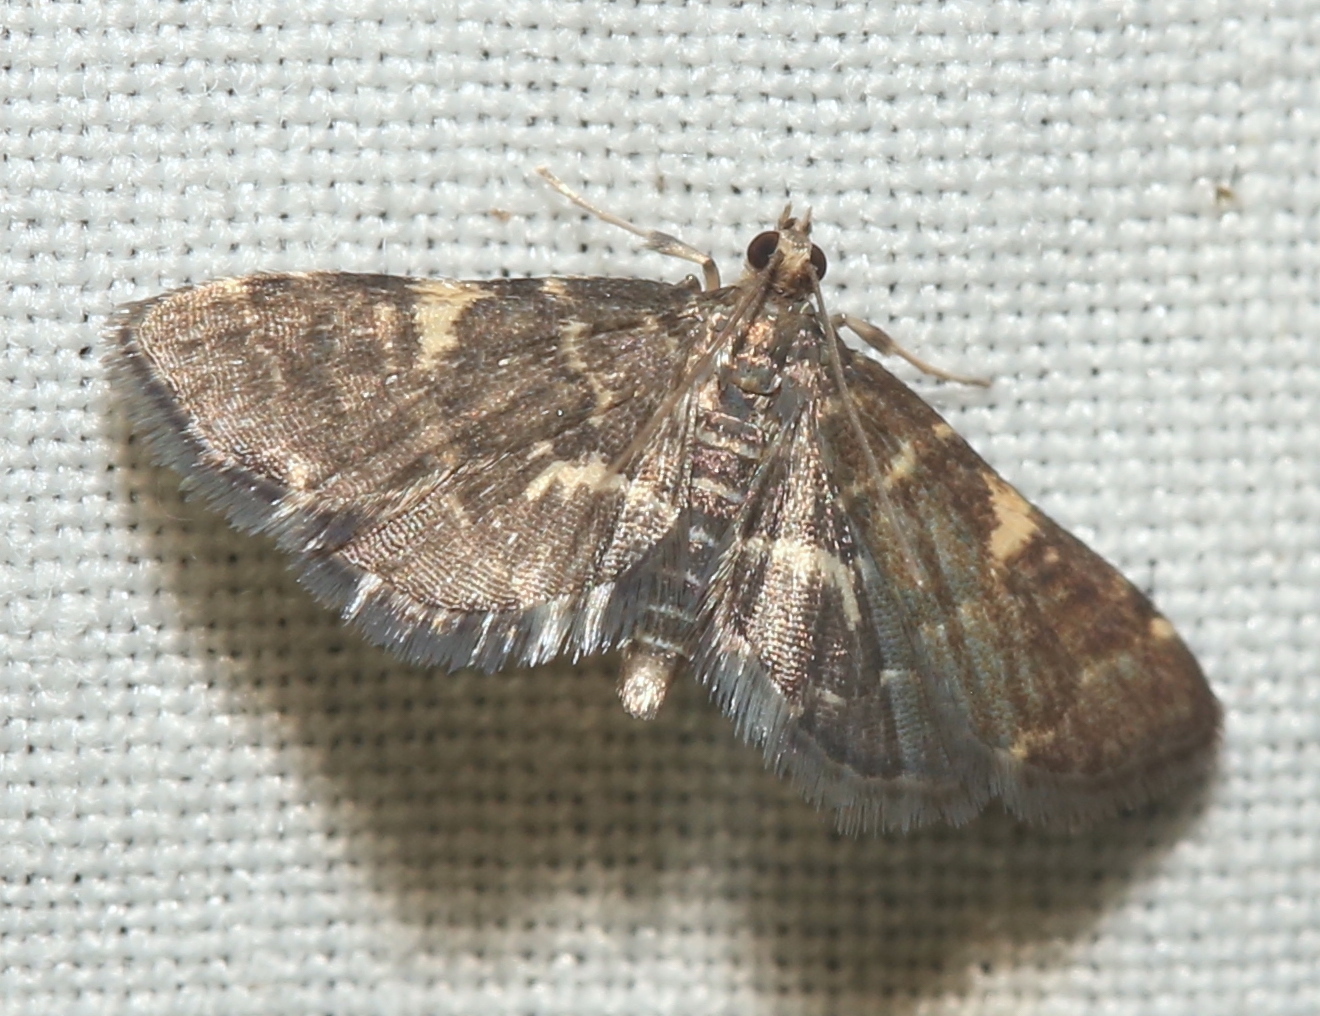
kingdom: Animalia
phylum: Arthropoda
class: Insecta
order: Lepidoptera
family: Crambidae
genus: Anageshna
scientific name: Anageshna primordialis
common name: Yellow-spotted webworm moth
